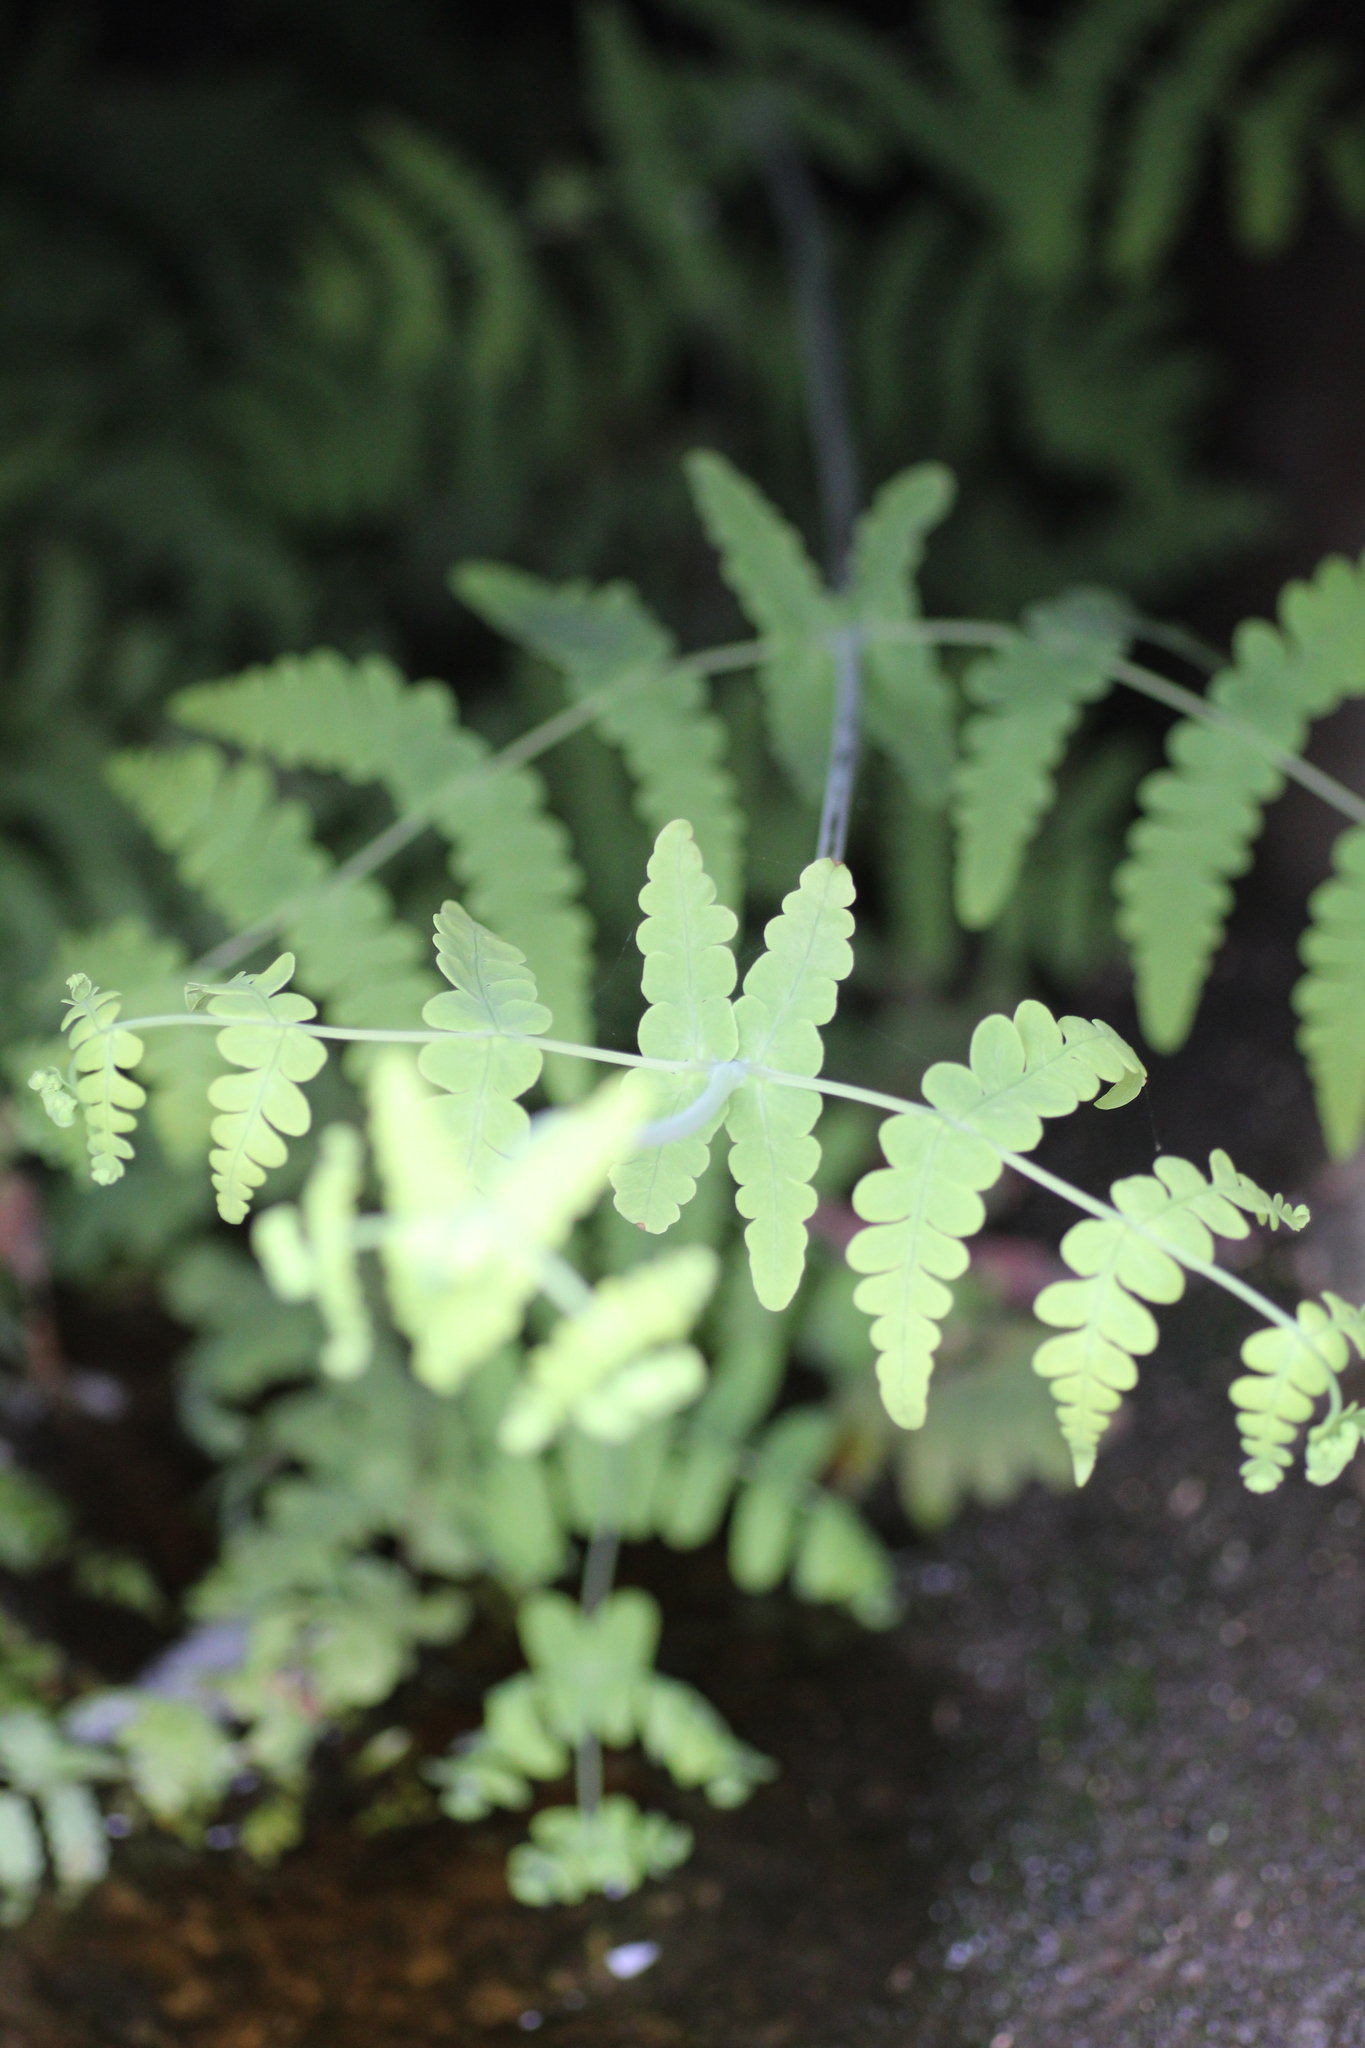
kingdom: Plantae
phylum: Tracheophyta
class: Polypodiopsida
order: Polypodiales
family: Dennstaedtiaceae
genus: Histiopteris
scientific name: Histiopteris incisa
